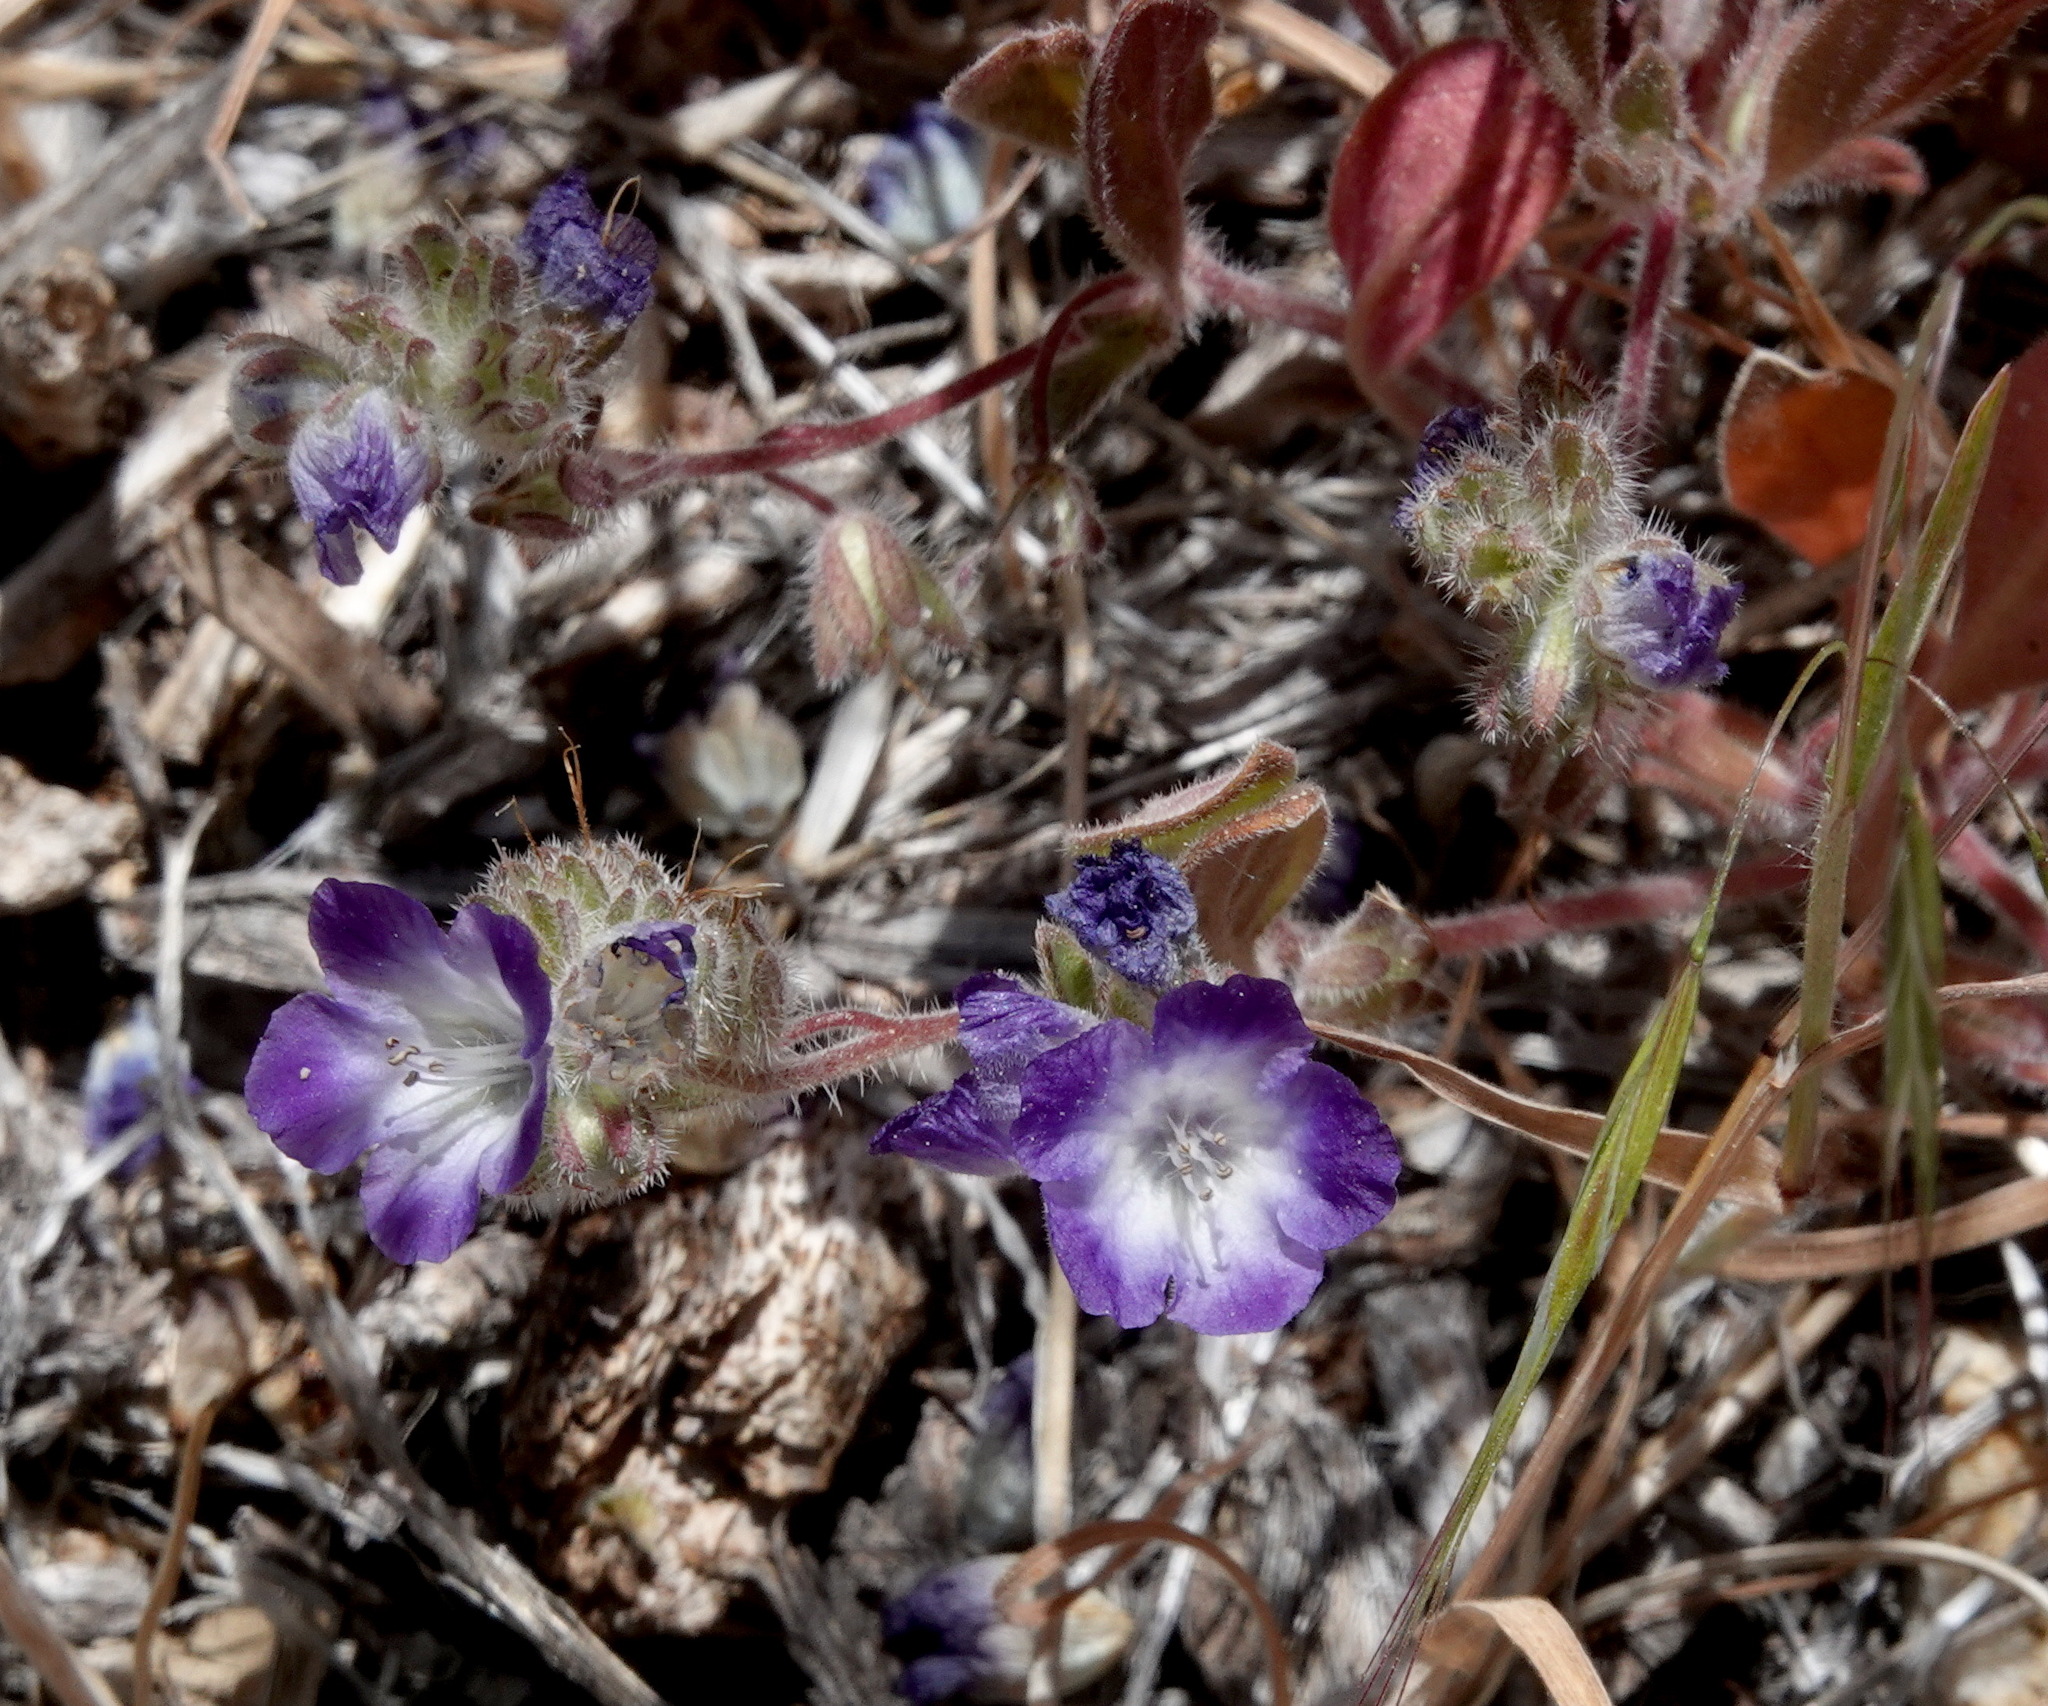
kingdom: Plantae
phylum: Tracheophyta
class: Magnoliopsida
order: Boraginales
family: Hydrophyllaceae
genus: Phacelia
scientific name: Phacelia davidsonii
